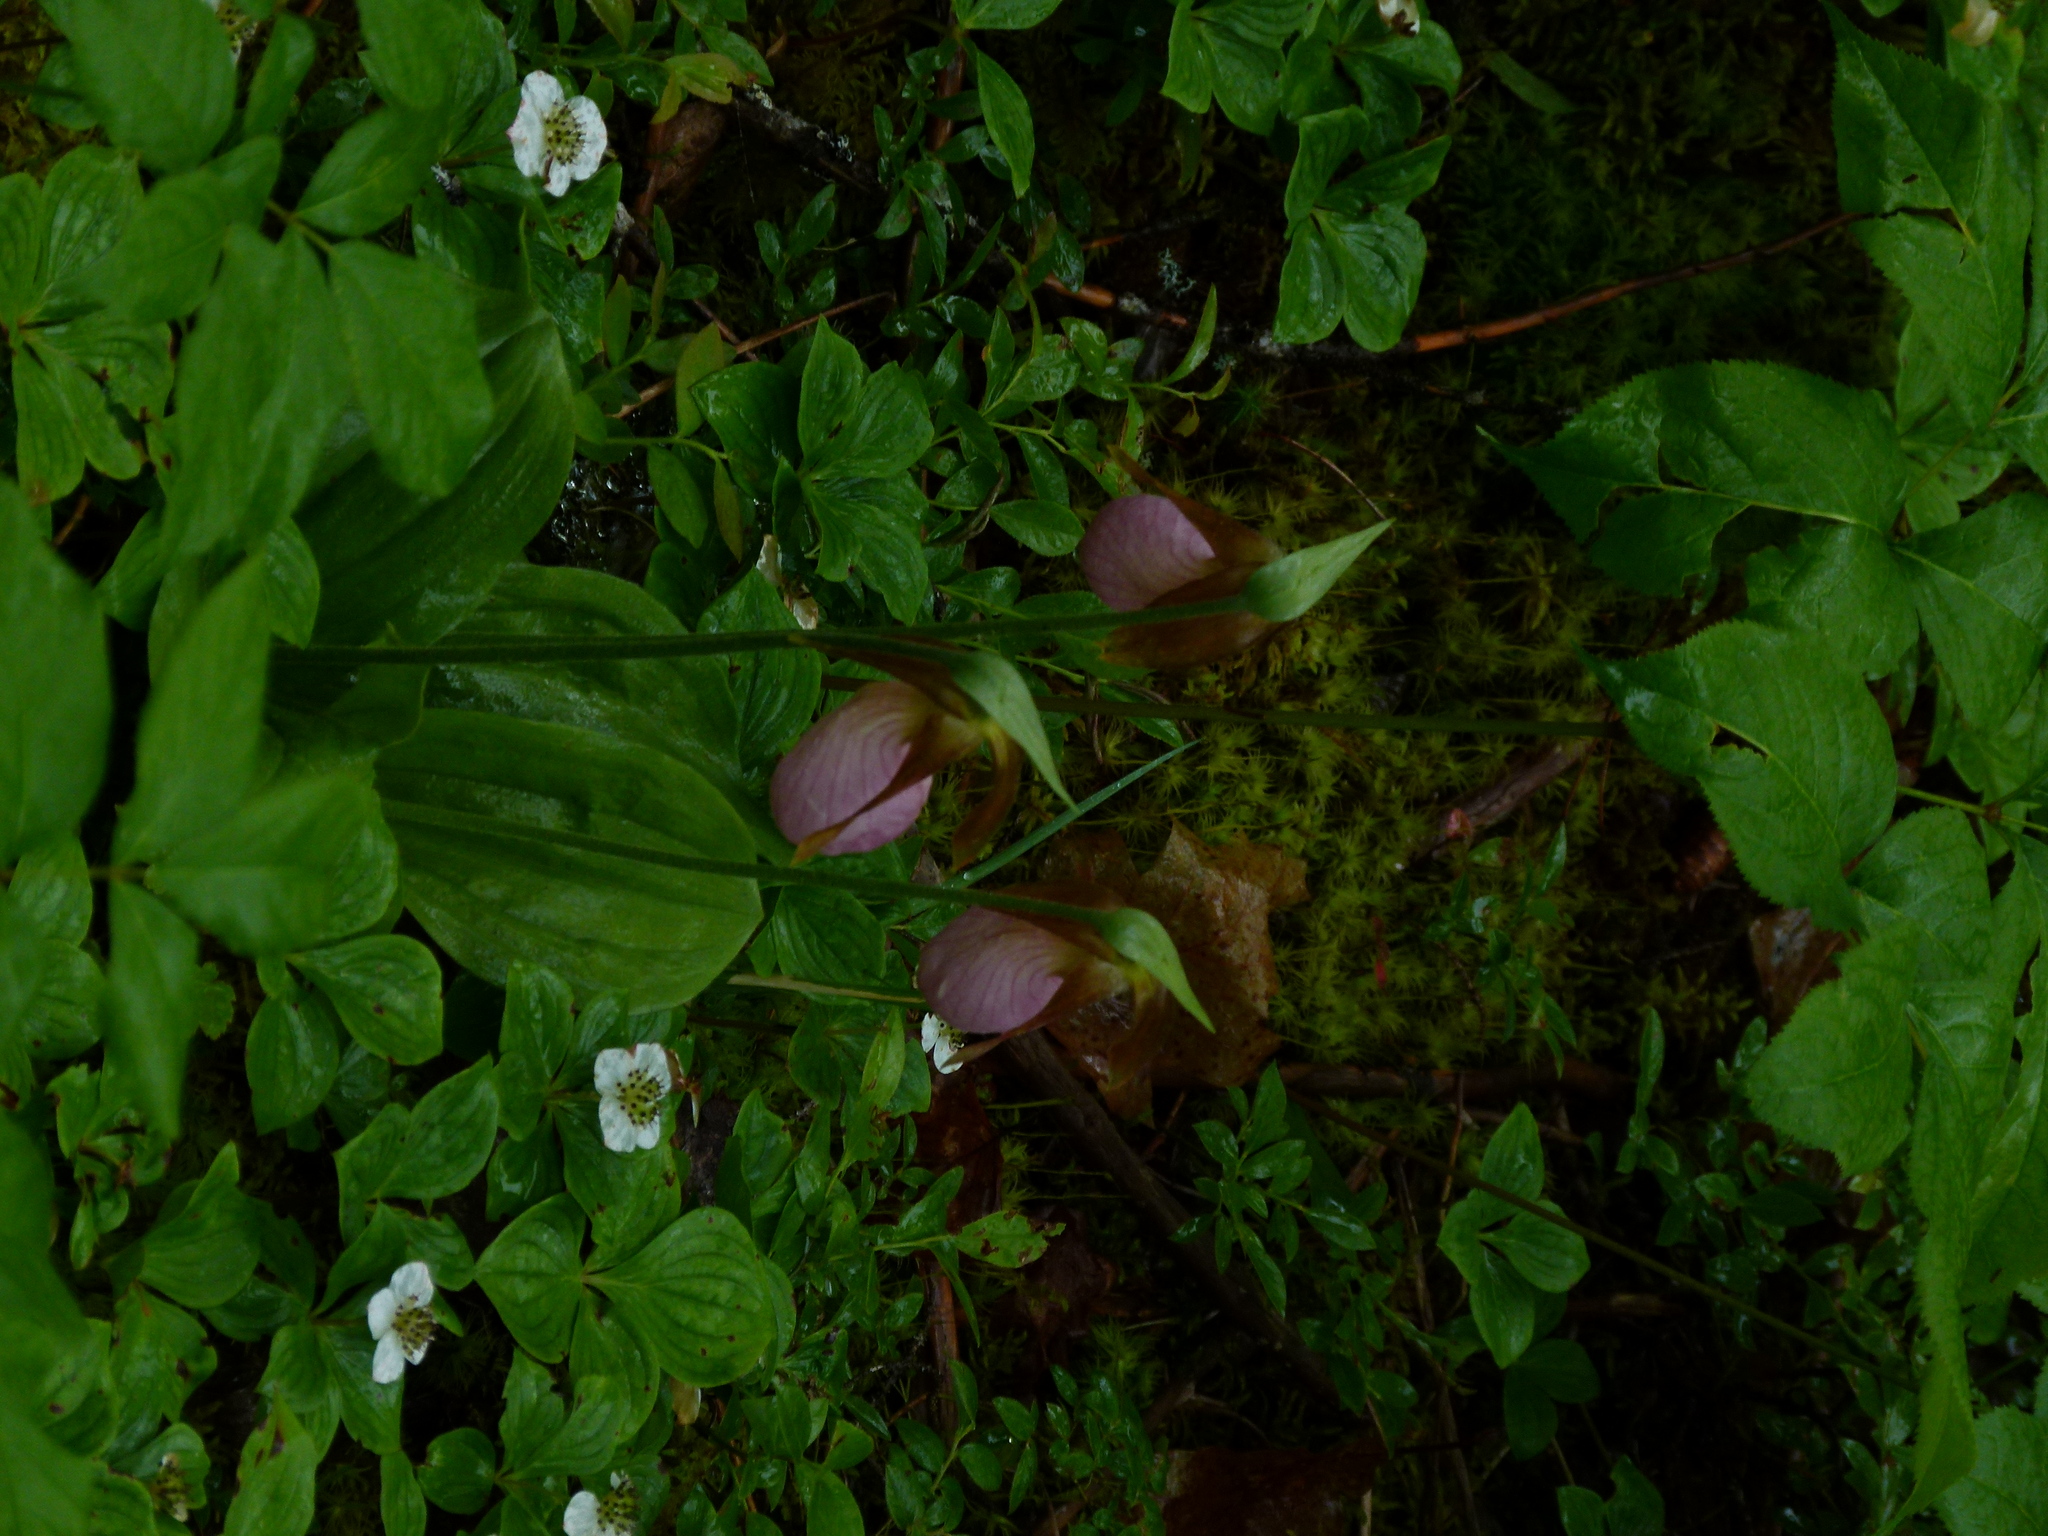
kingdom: Plantae
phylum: Tracheophyta
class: Liliopsida
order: Asparagales
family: Orchidaceae
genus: Cypripedium
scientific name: Cypripedium acaule
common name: Pink lady's-slipper
